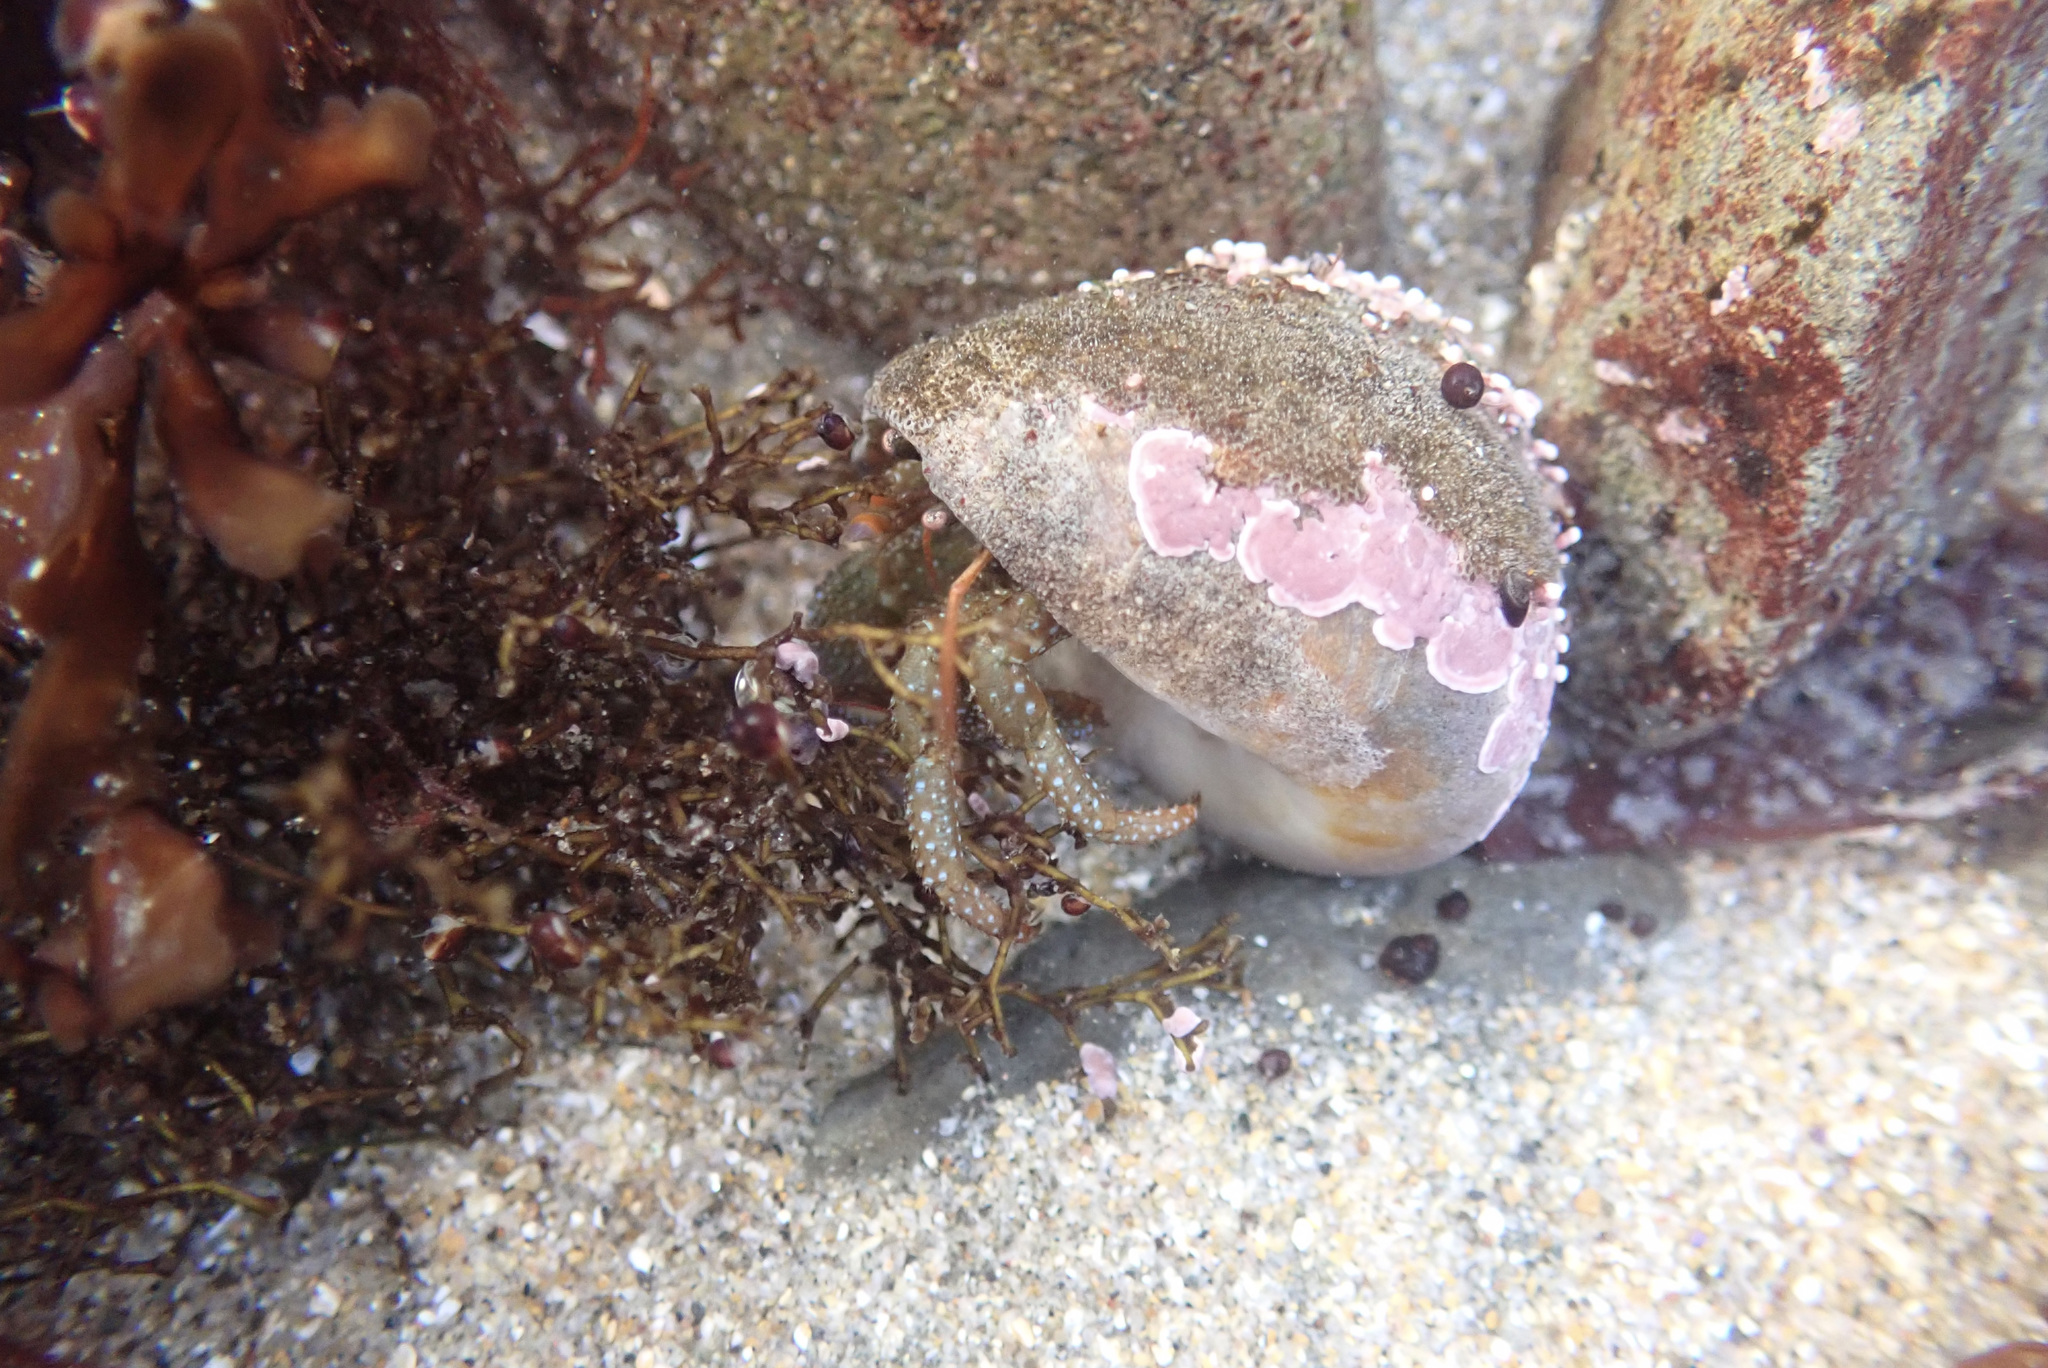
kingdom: Animalia
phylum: Arthropoda
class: Malacostraca
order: Decapoda
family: Paguridae
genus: Pagurus
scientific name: Pagurus granosimanus
